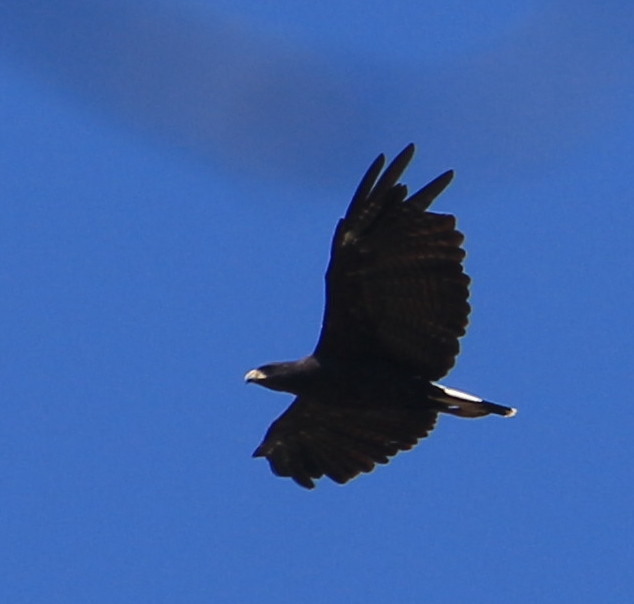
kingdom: Animalia
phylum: Chordata
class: Aves
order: Accipitriformes
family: Accipitridae
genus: Buteogallus
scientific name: Buteogallus urubitinga
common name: Great black hawk
